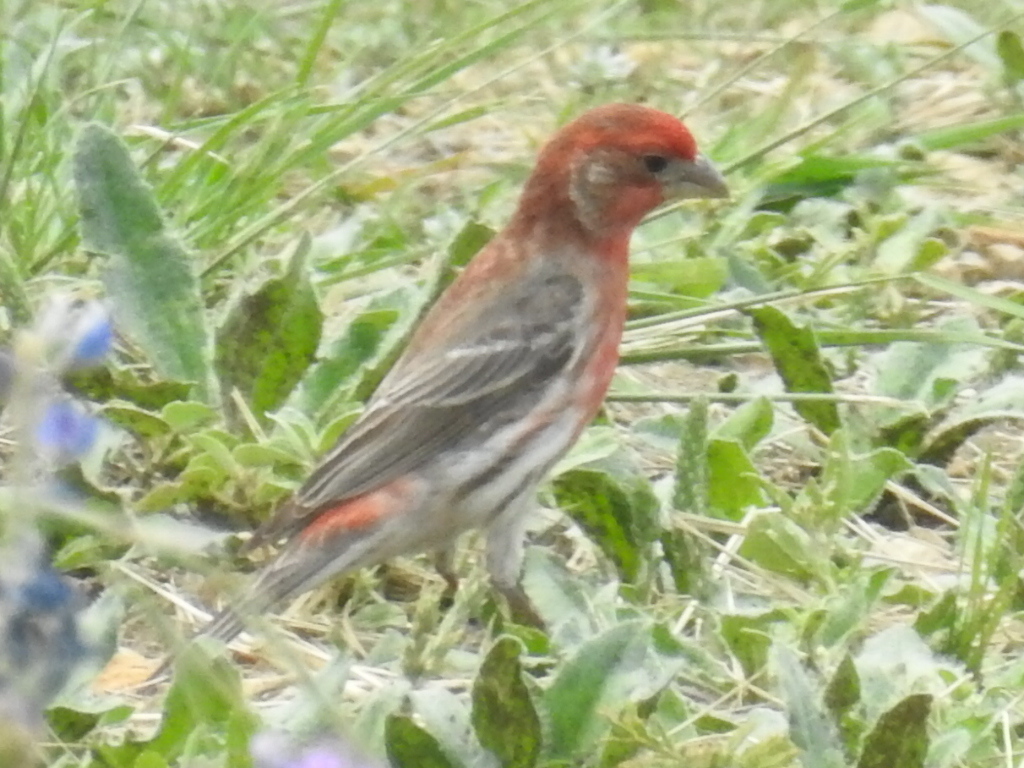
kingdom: Animalia
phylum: Chordata
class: Aves
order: Passeriformes
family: Fringillidae
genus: Haemorhous
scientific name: Haemorhous mexicanus
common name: House finch
